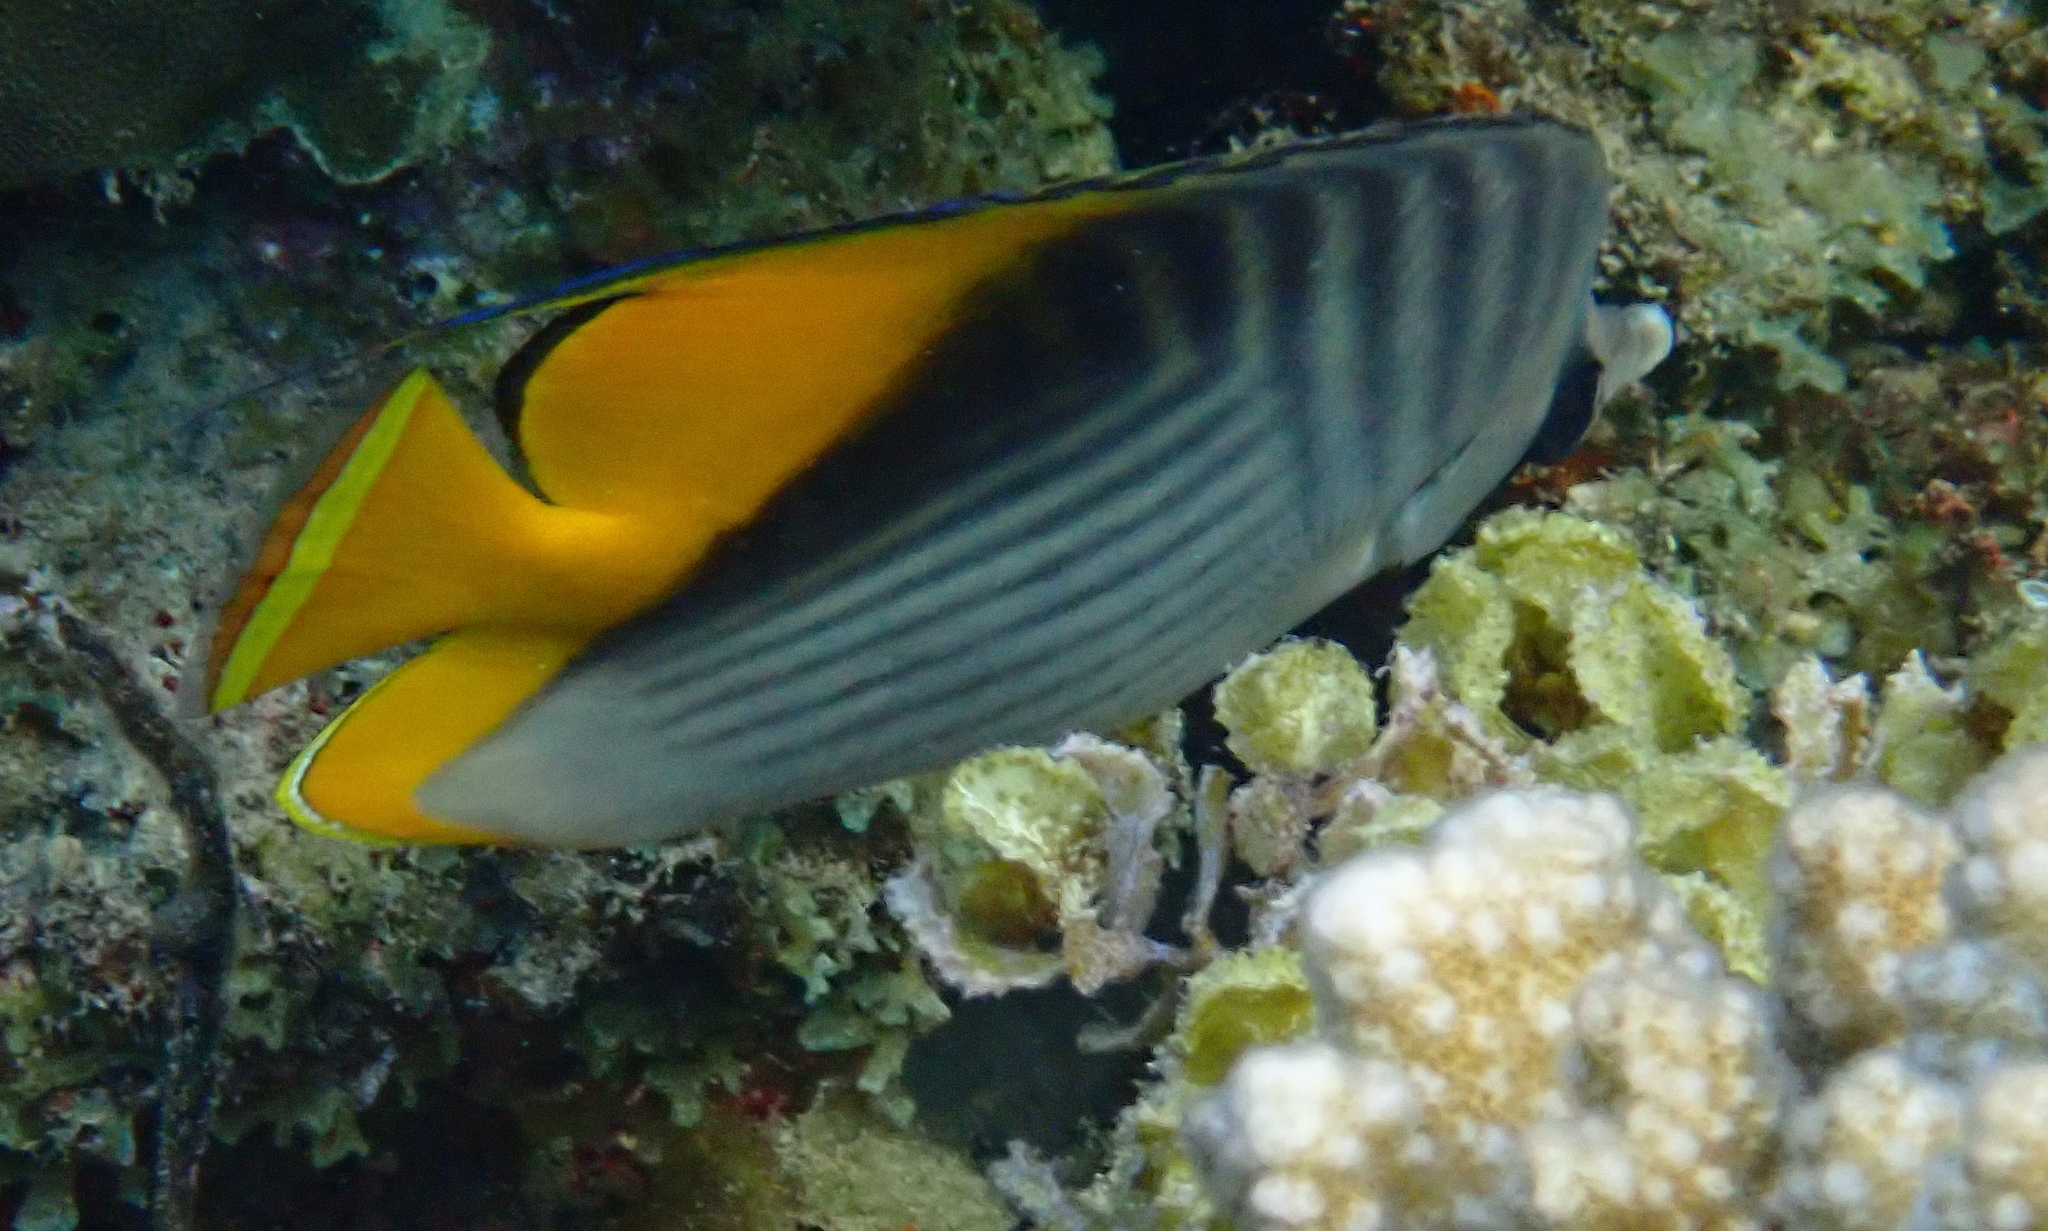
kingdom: Animalia
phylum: Chordata
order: Perciformes
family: Chaetodontidae
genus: Chaetodon
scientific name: Chaetodon auriga
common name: Threadfin butterflyfish
